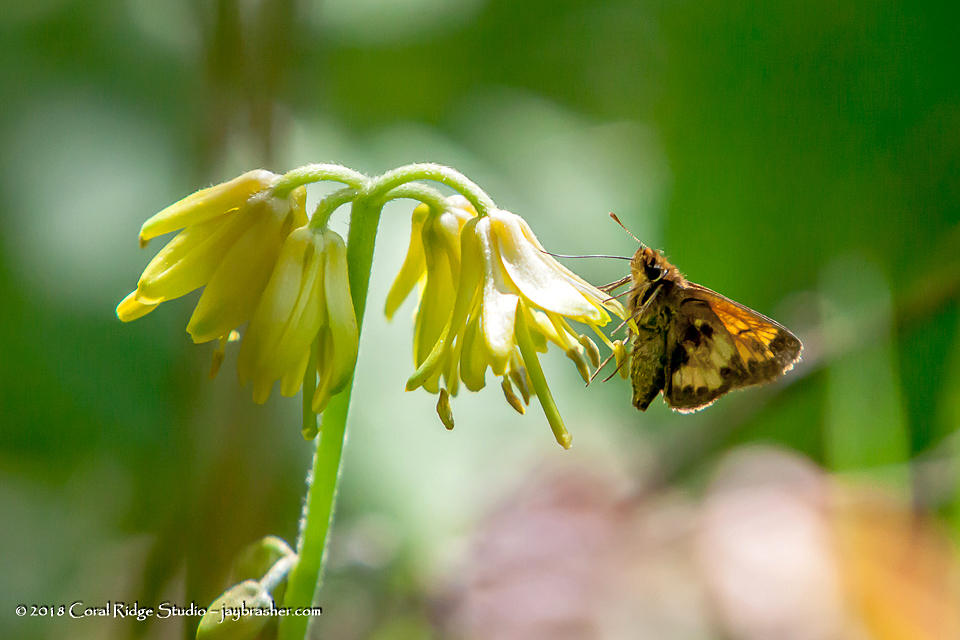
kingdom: Animalia
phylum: Arthropoda
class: Insecta
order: Lepidoptera
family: Hesperiidae
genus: Lon
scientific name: Lon hobomok
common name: Hobomok skipper
